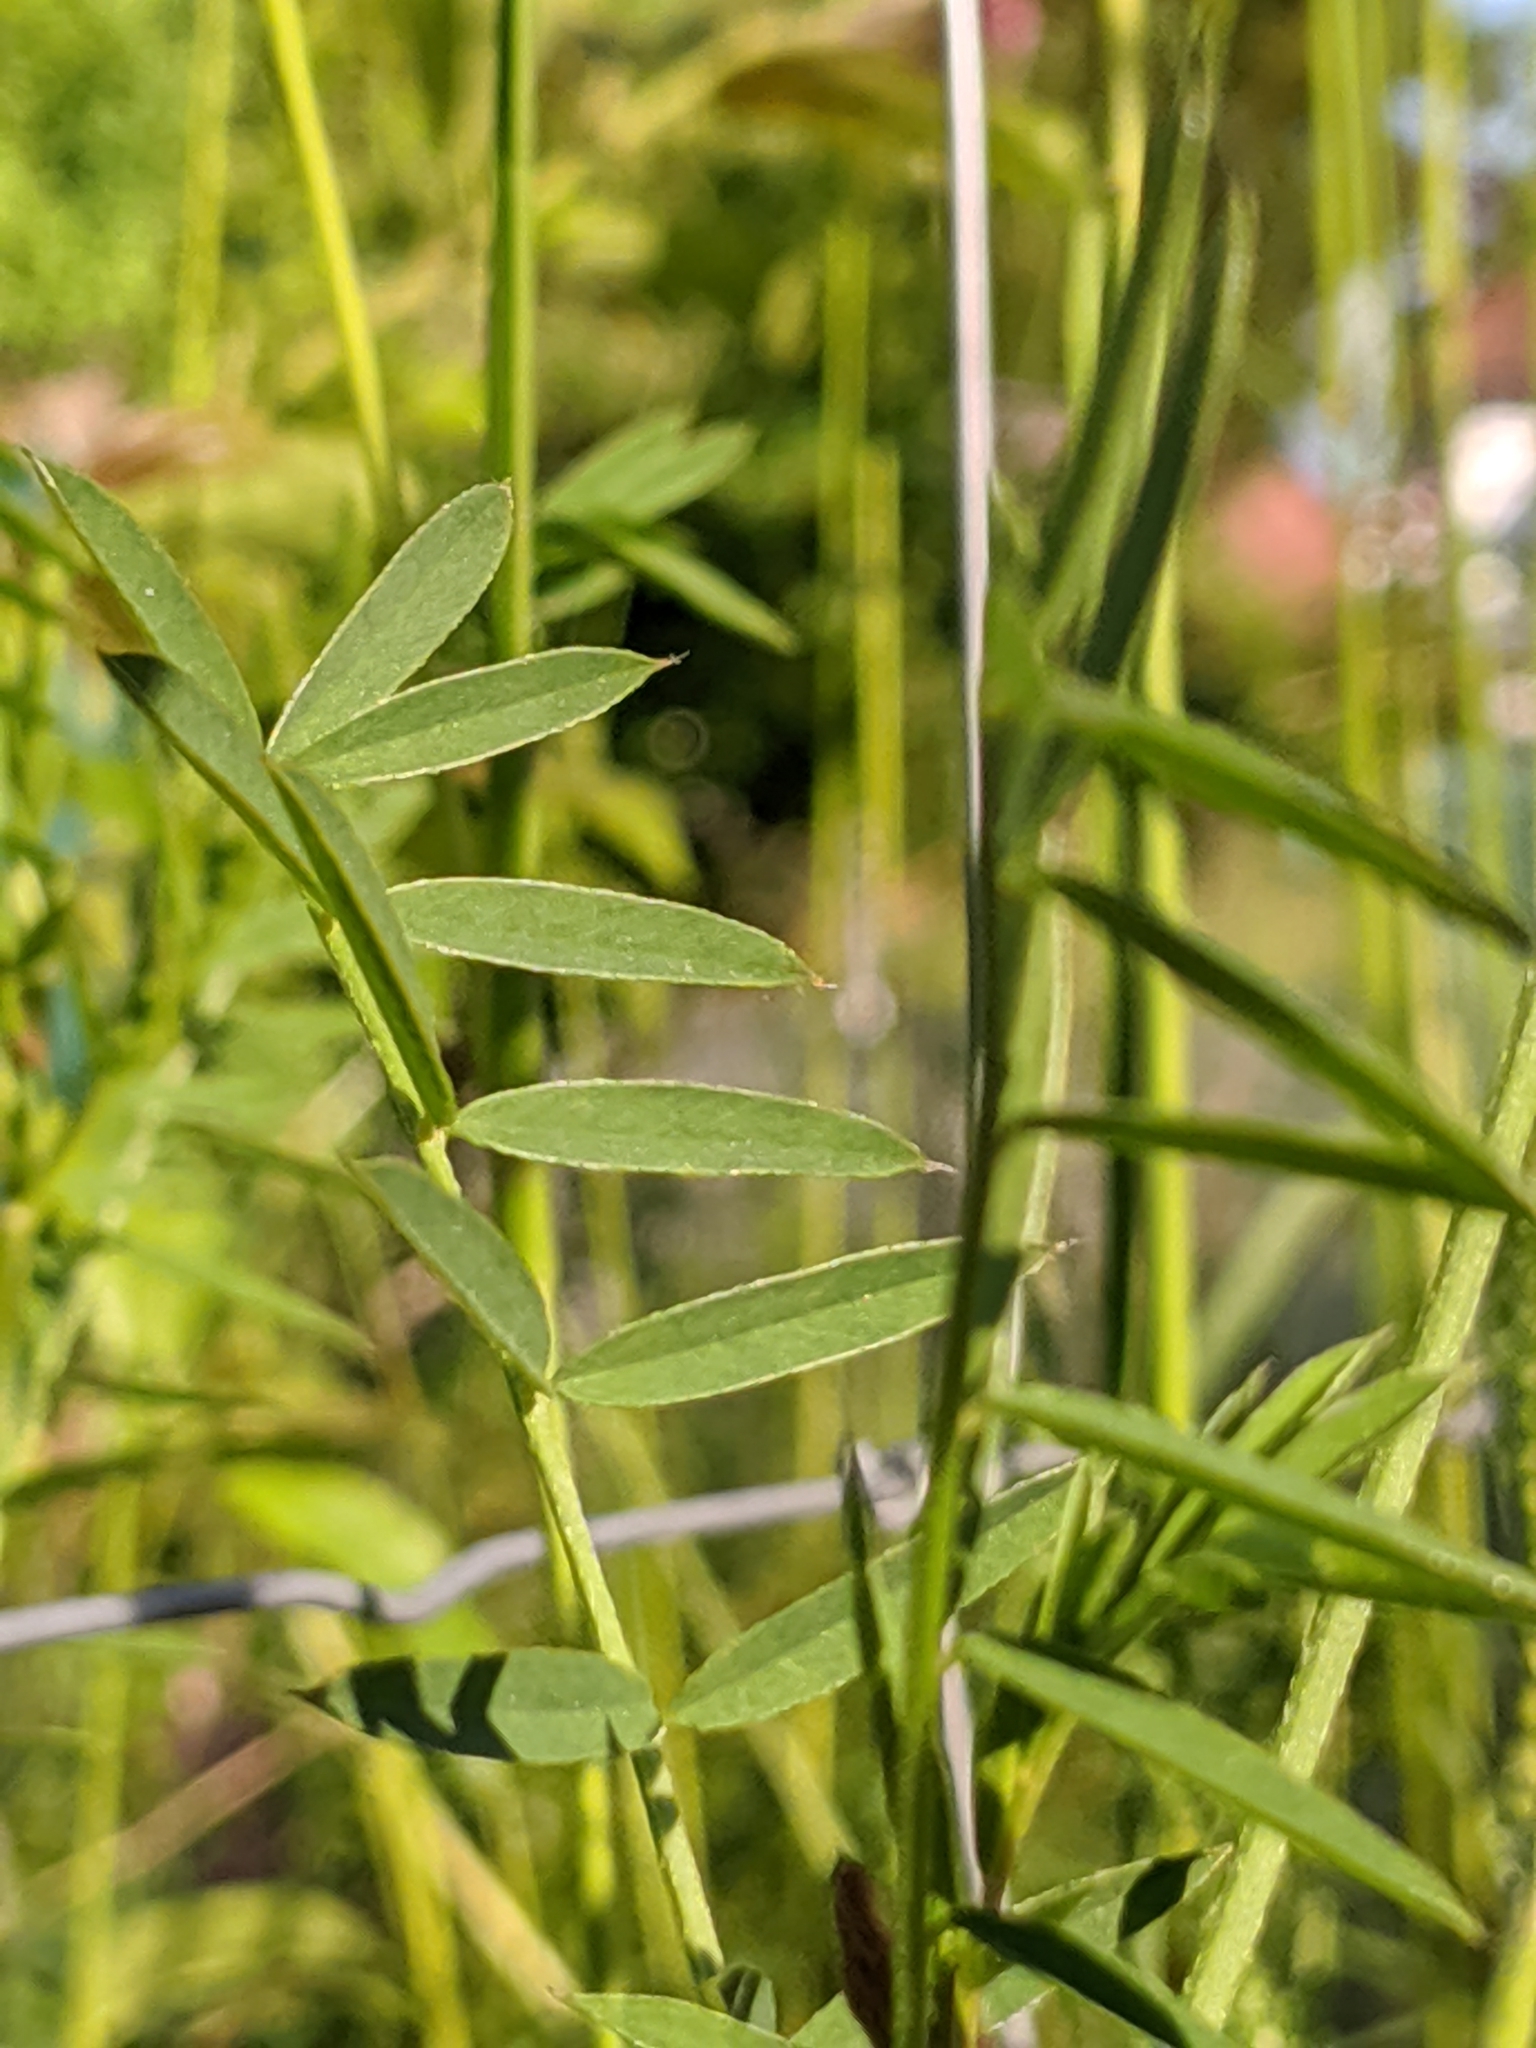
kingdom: Plantae
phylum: Tracheophyta
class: Magnoliopsida
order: Fabales
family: Fabaceae
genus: Onobrychis
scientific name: Onobrychis viciifolia
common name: Sainfoin
